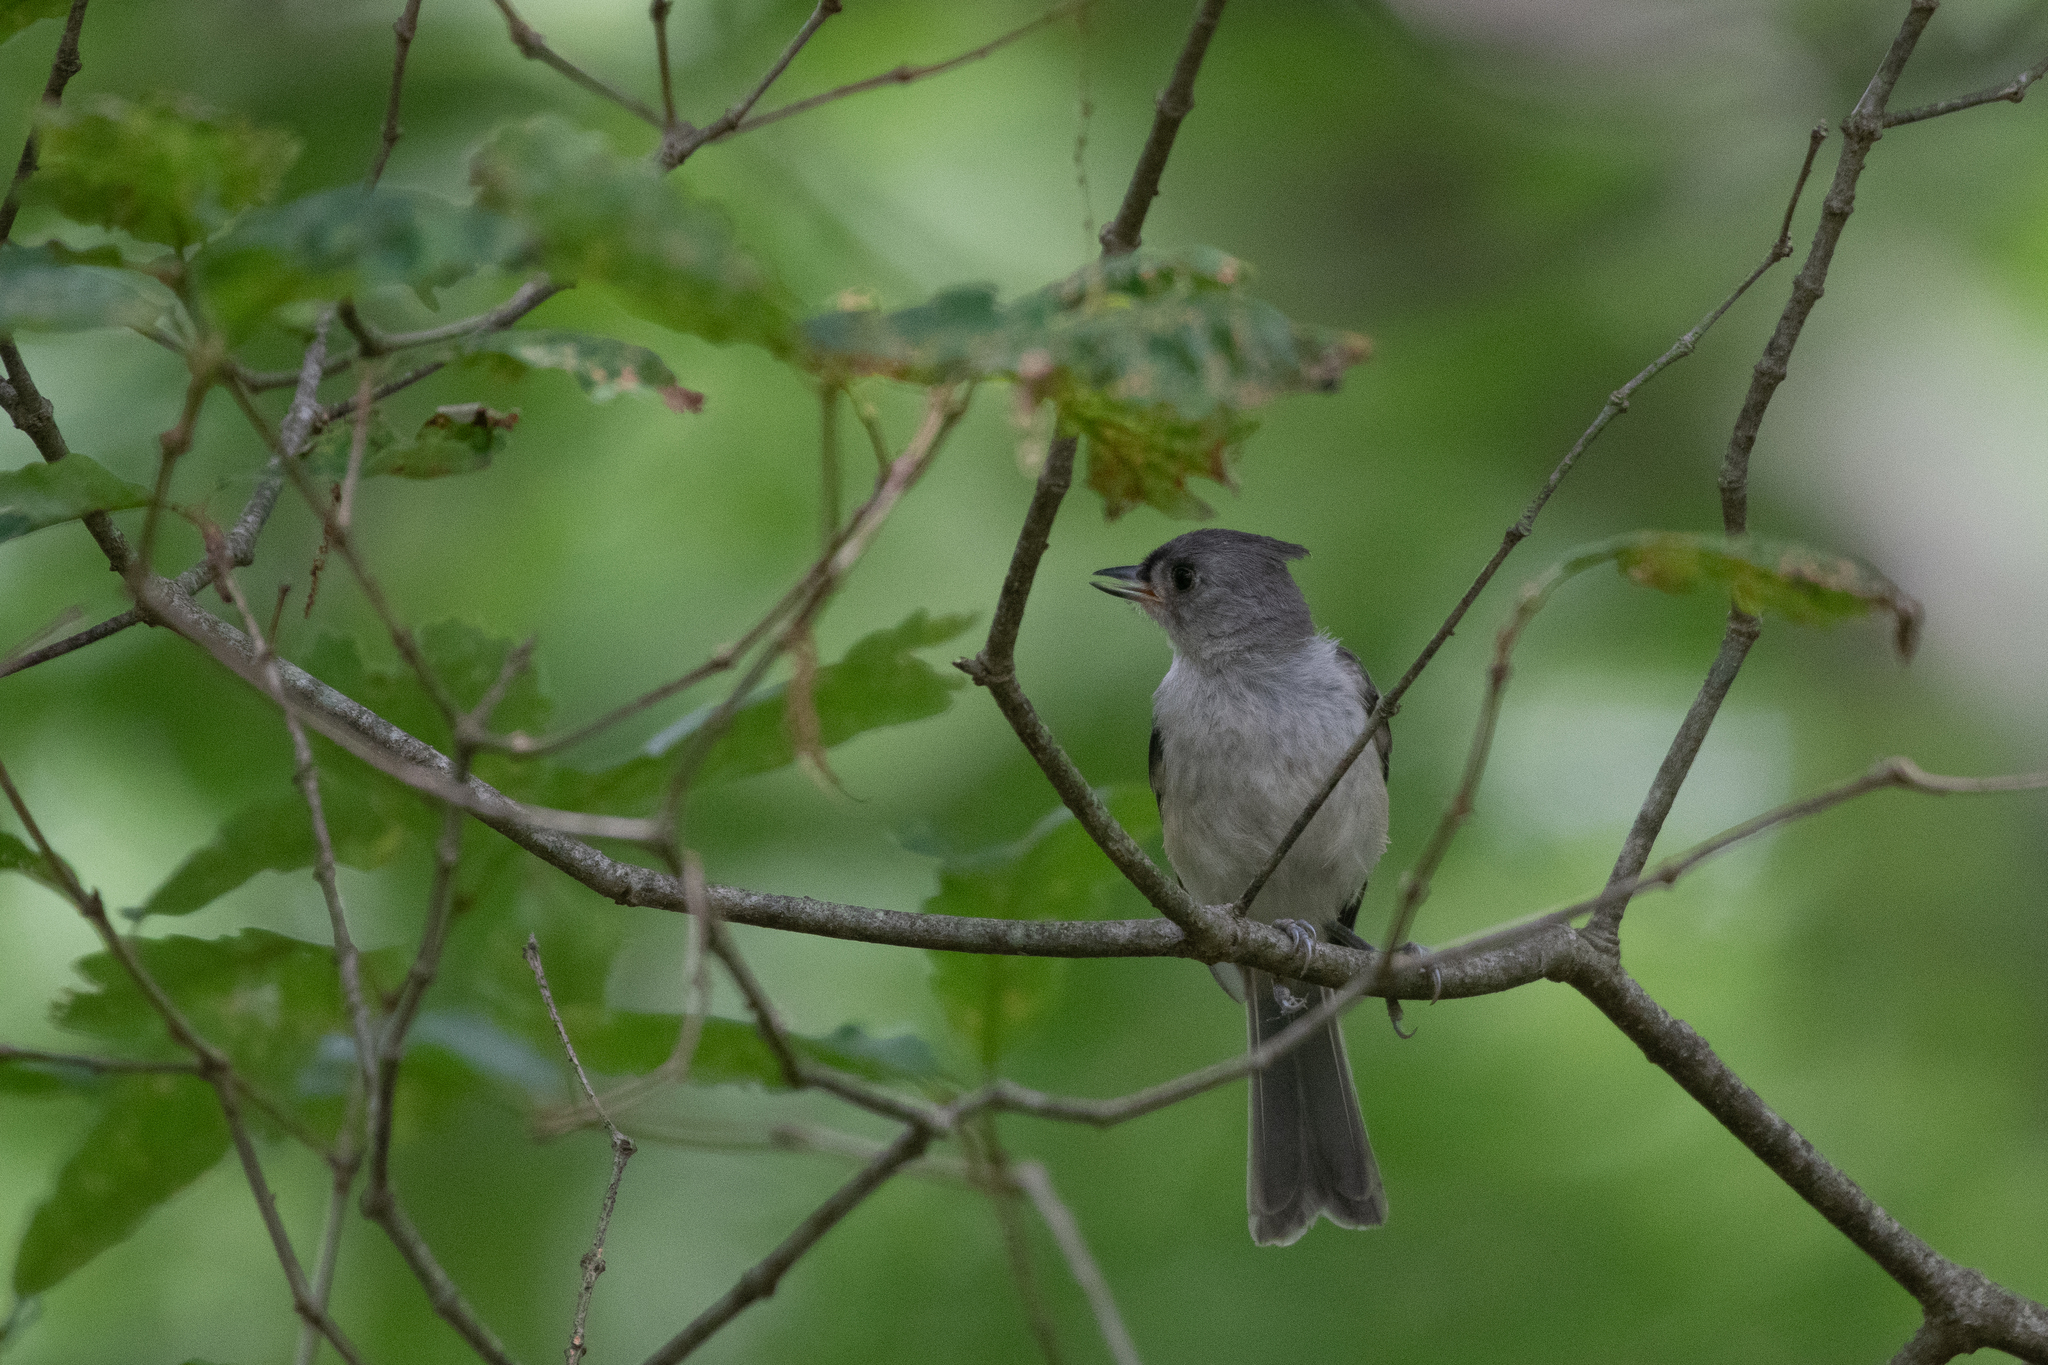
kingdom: Animalia
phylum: Chordata
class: Aves
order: Passeriformes
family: Paridae
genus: Baeolophus
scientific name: Baeolophus bicolor
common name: Tufted titmouse
